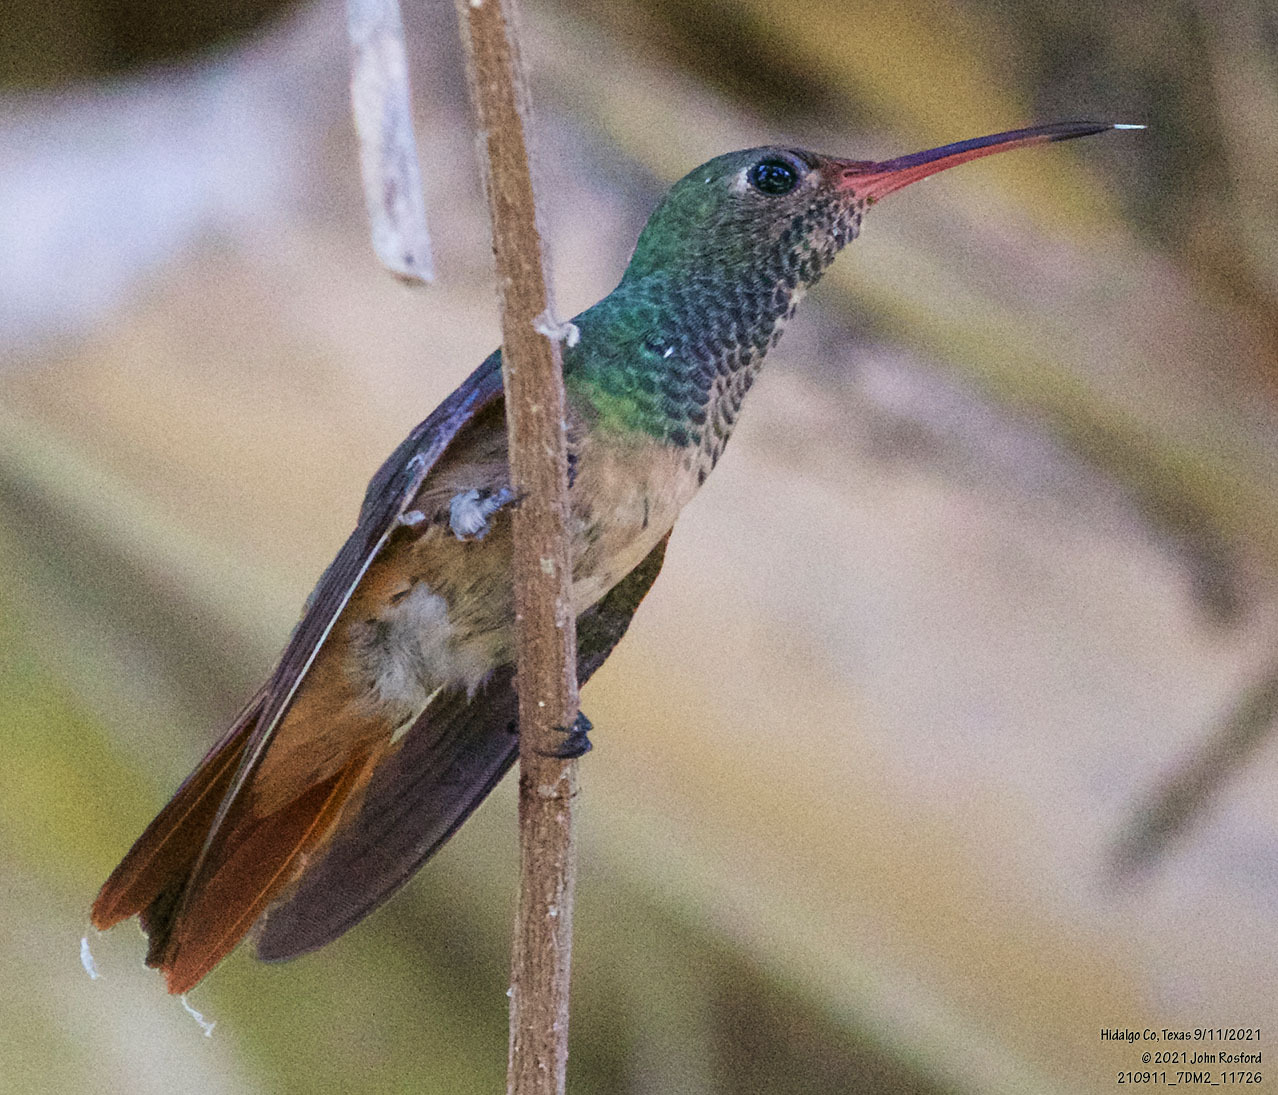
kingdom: Animalia
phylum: Chordata
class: Aves
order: Apodiformes
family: Trochilidae
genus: Amazilia
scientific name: Amazilia yucatanensis
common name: Buff-bellied hummingbird
